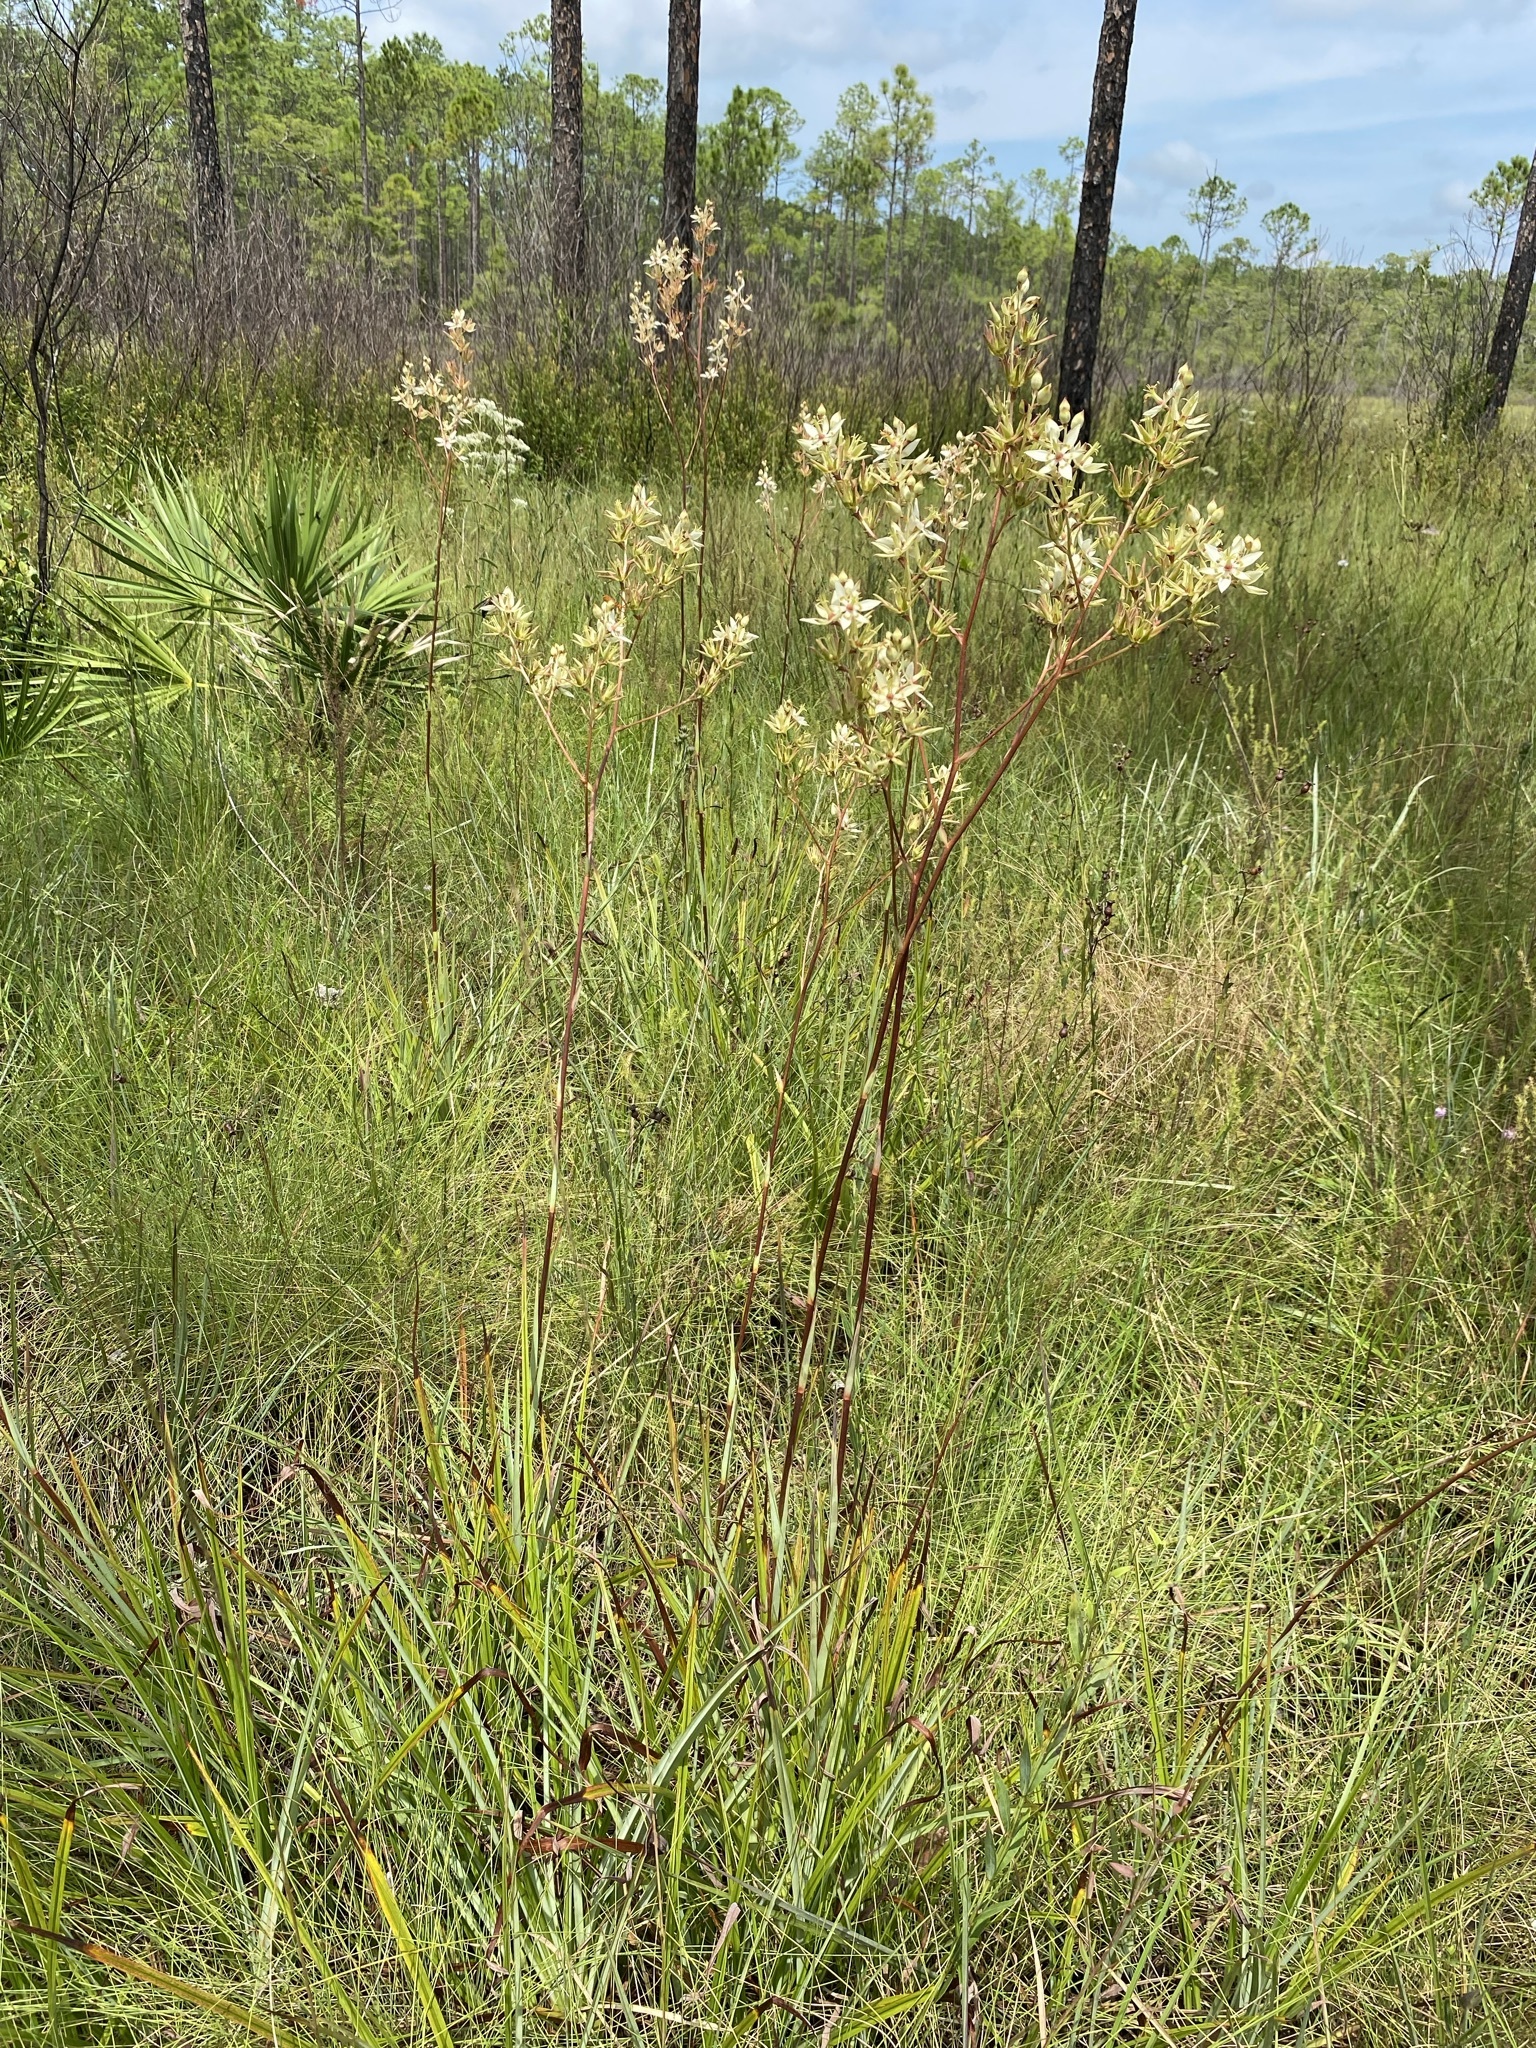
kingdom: Plantae
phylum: Tracheophyta
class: Liliopsida
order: Liliales
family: Melanthiaceae
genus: Zigadenus
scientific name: Zigadenus glaberrimus
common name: Sandbog death camas
